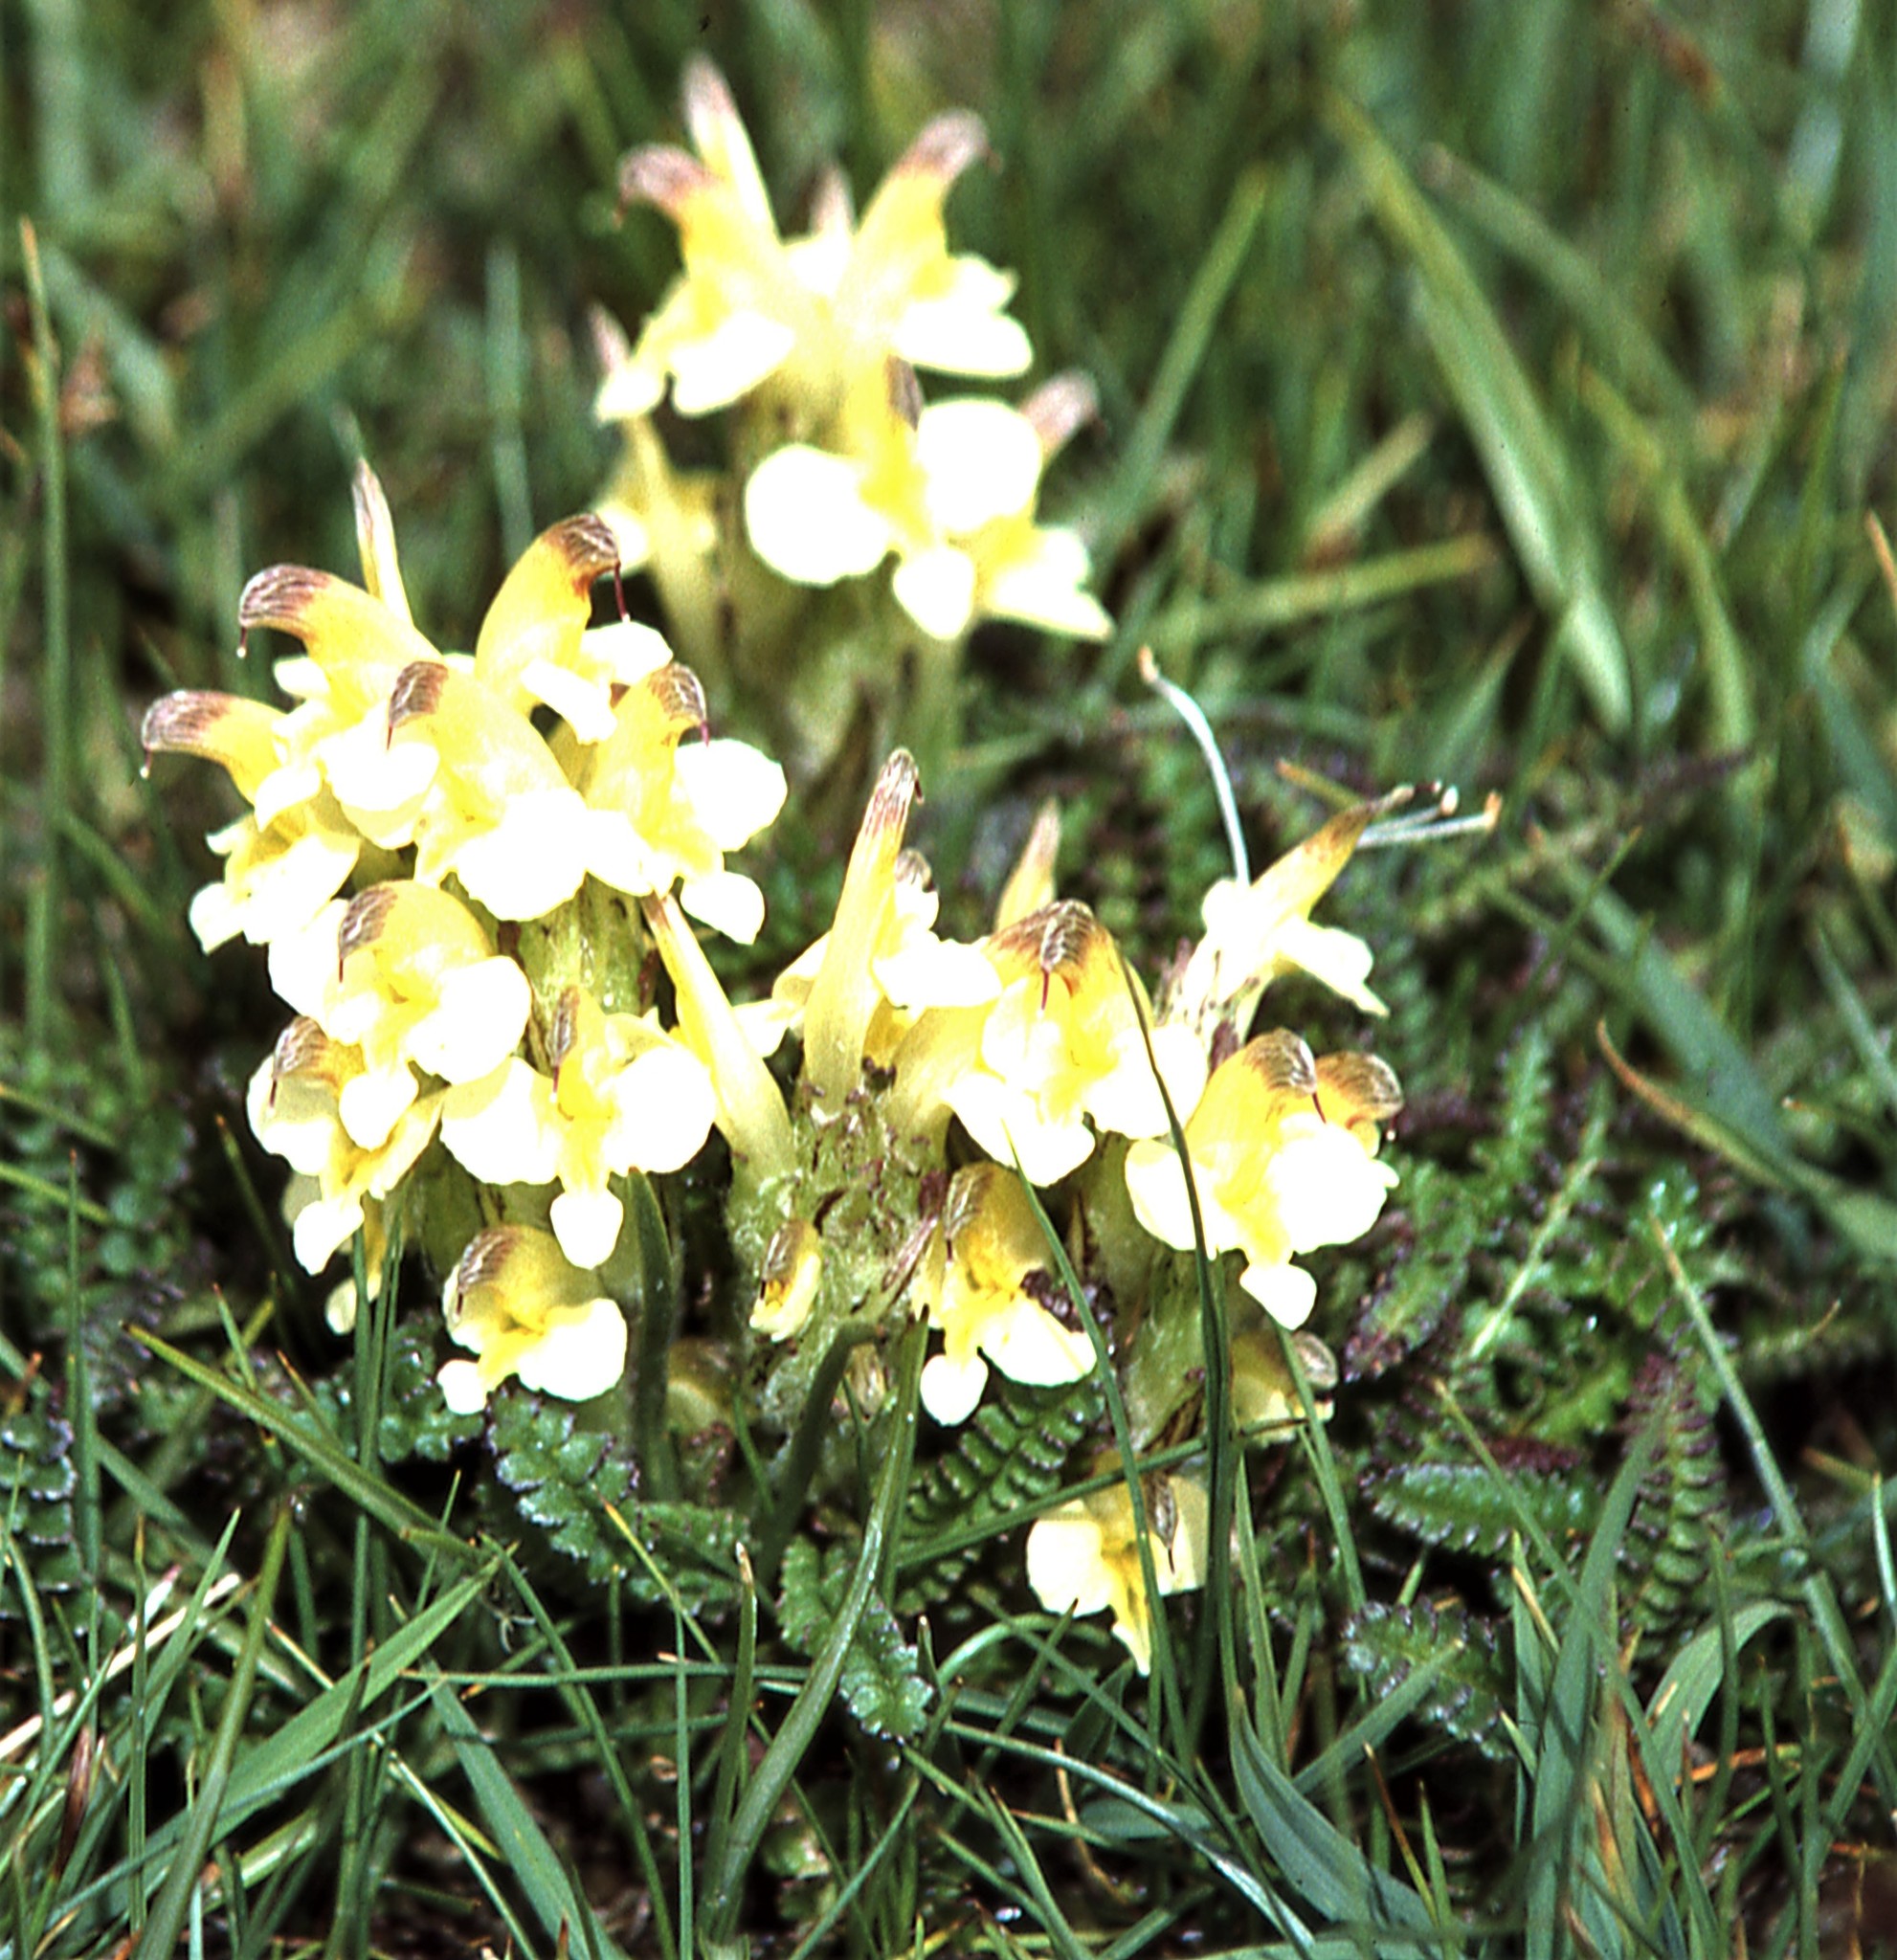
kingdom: Plantae
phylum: Tracheophyta
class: Magnoliopsida
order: Lamiales
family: Orobanchaceae
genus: Pedicularis
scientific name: Pedicularis oederi
